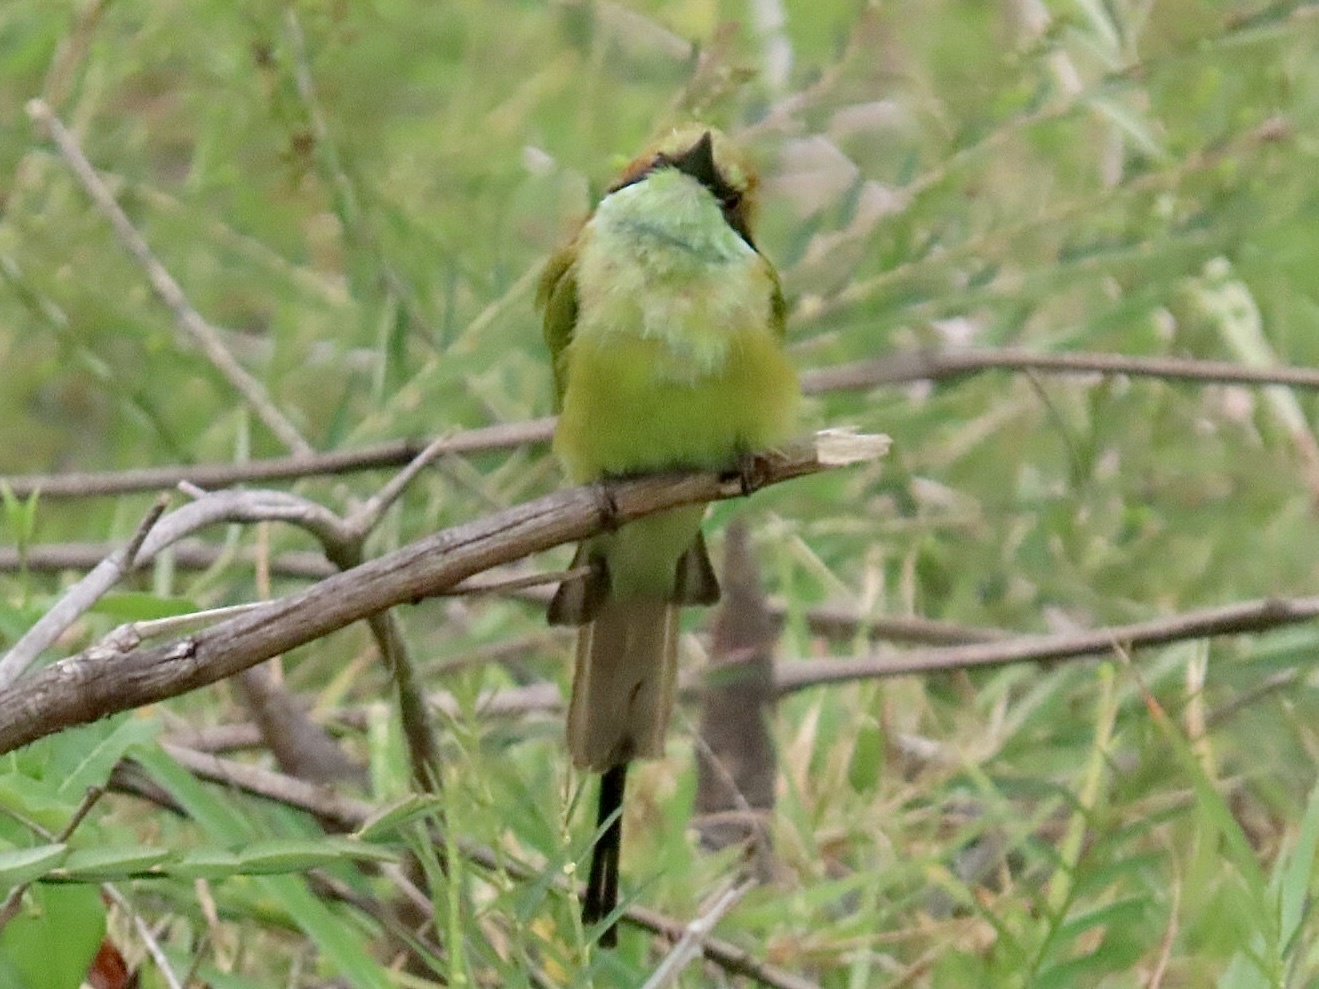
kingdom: Animalia
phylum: Chordata
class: Aves
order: Coraciiformes
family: Meropidae
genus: Merops
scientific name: Merops orientalis
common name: Green bee-eater
